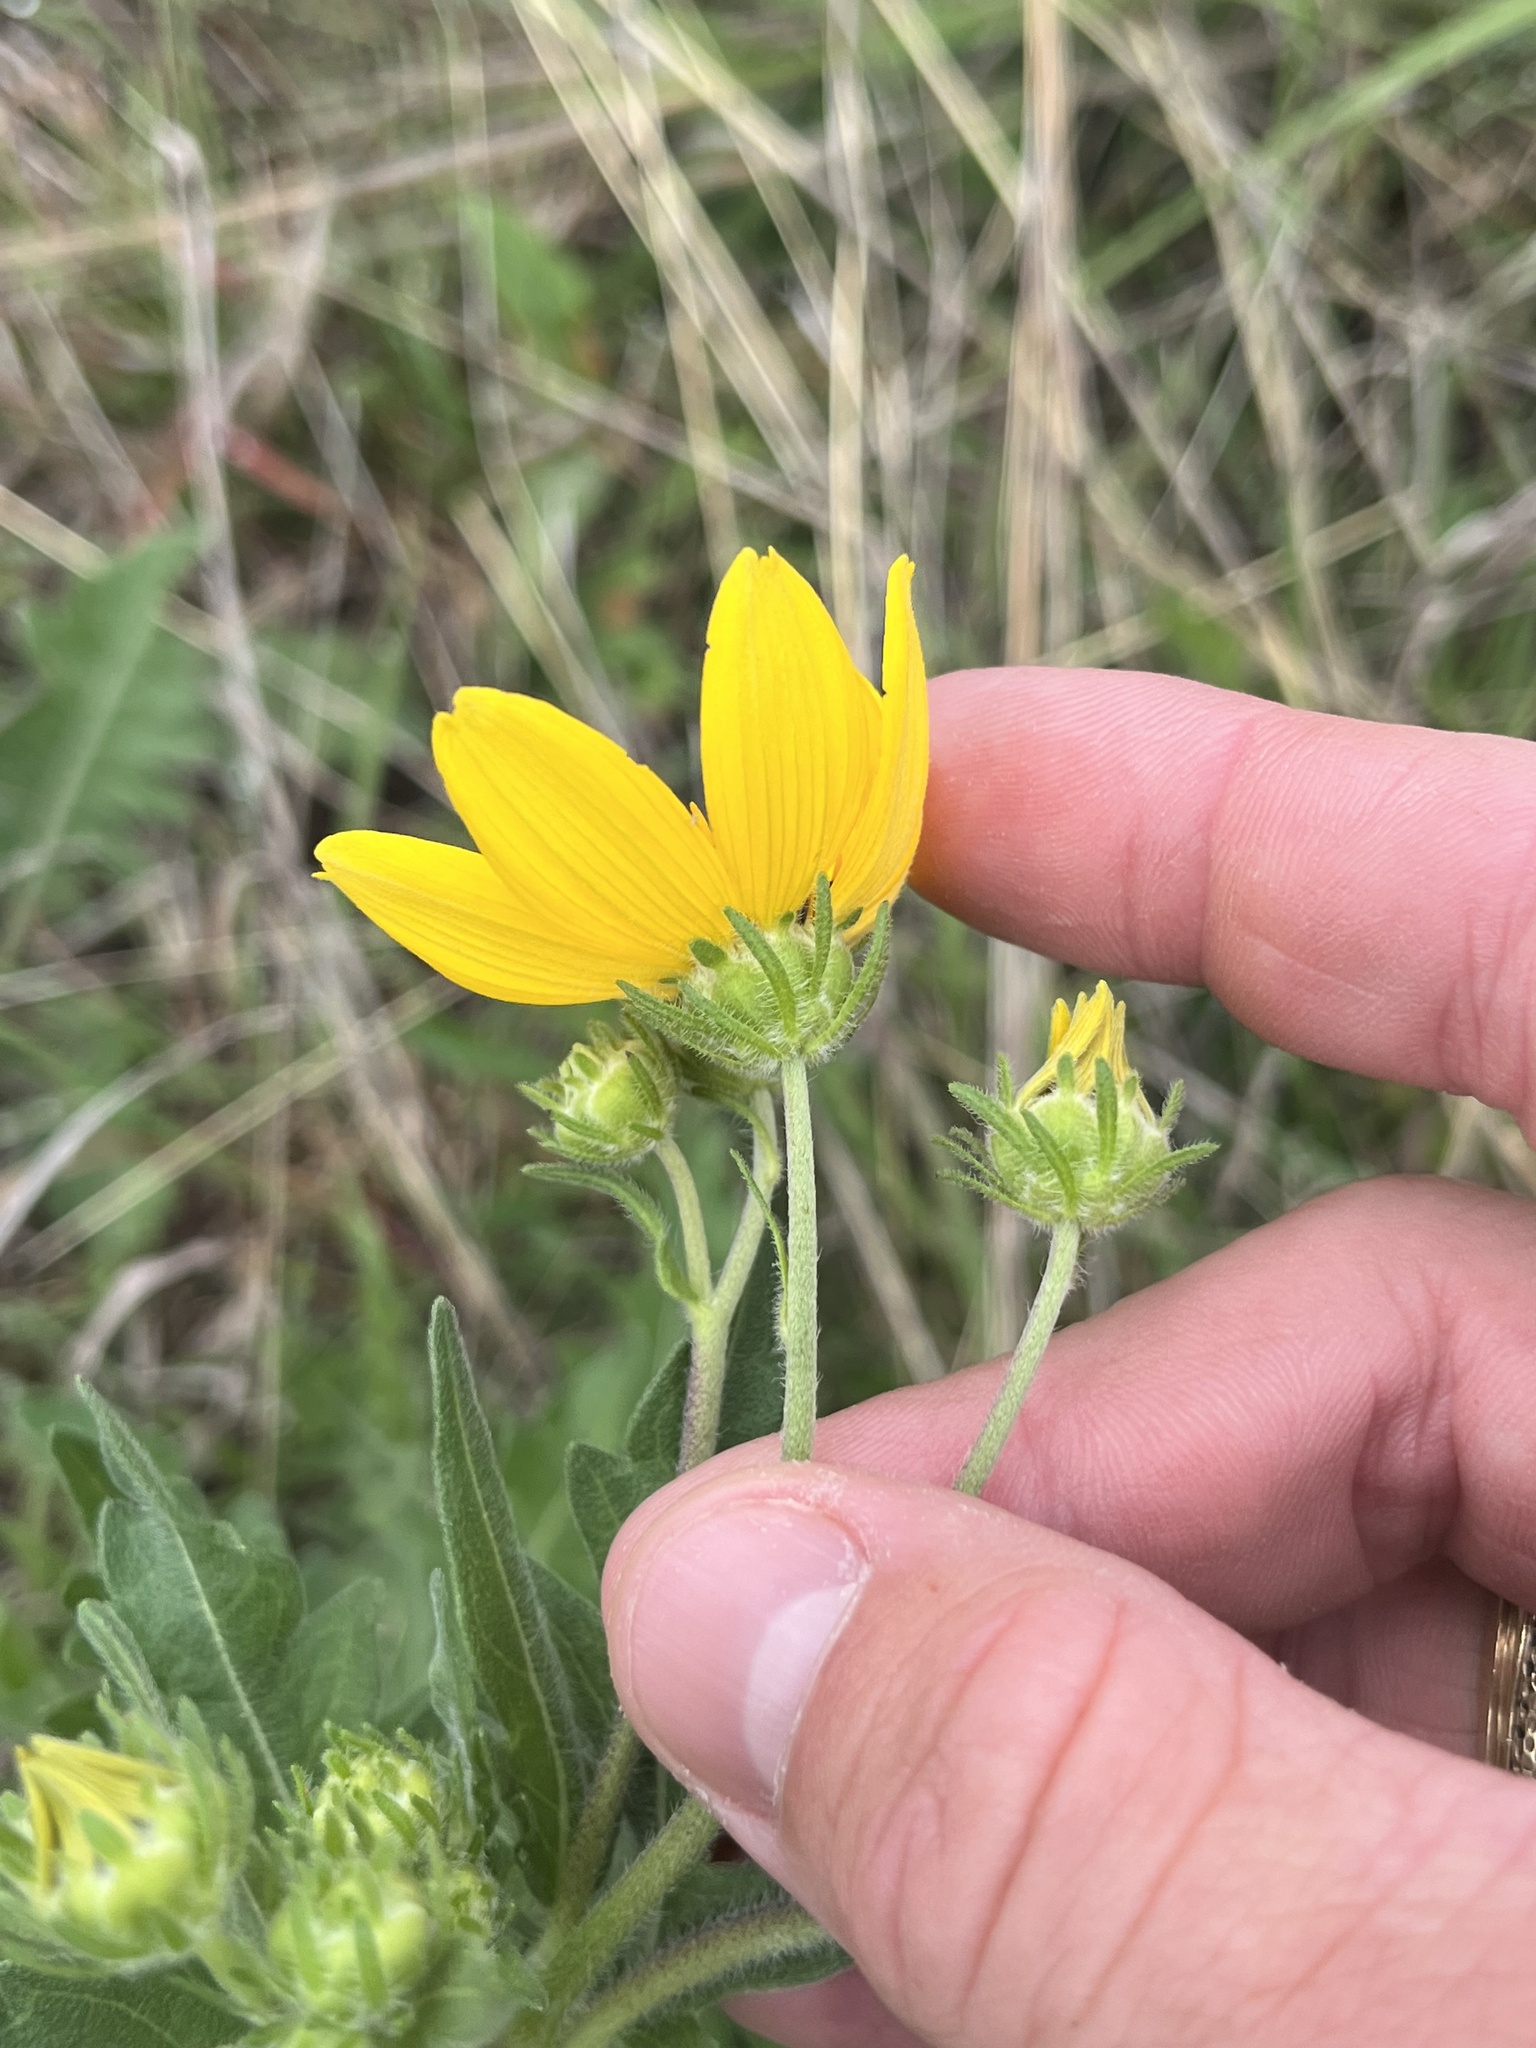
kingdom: Plantae
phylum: Tracheophyta
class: Magnoliopsida
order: Asterales
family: Asteraceae
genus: Engelmannia
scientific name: Engelmannia peristenia
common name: Engelmann's daisy
